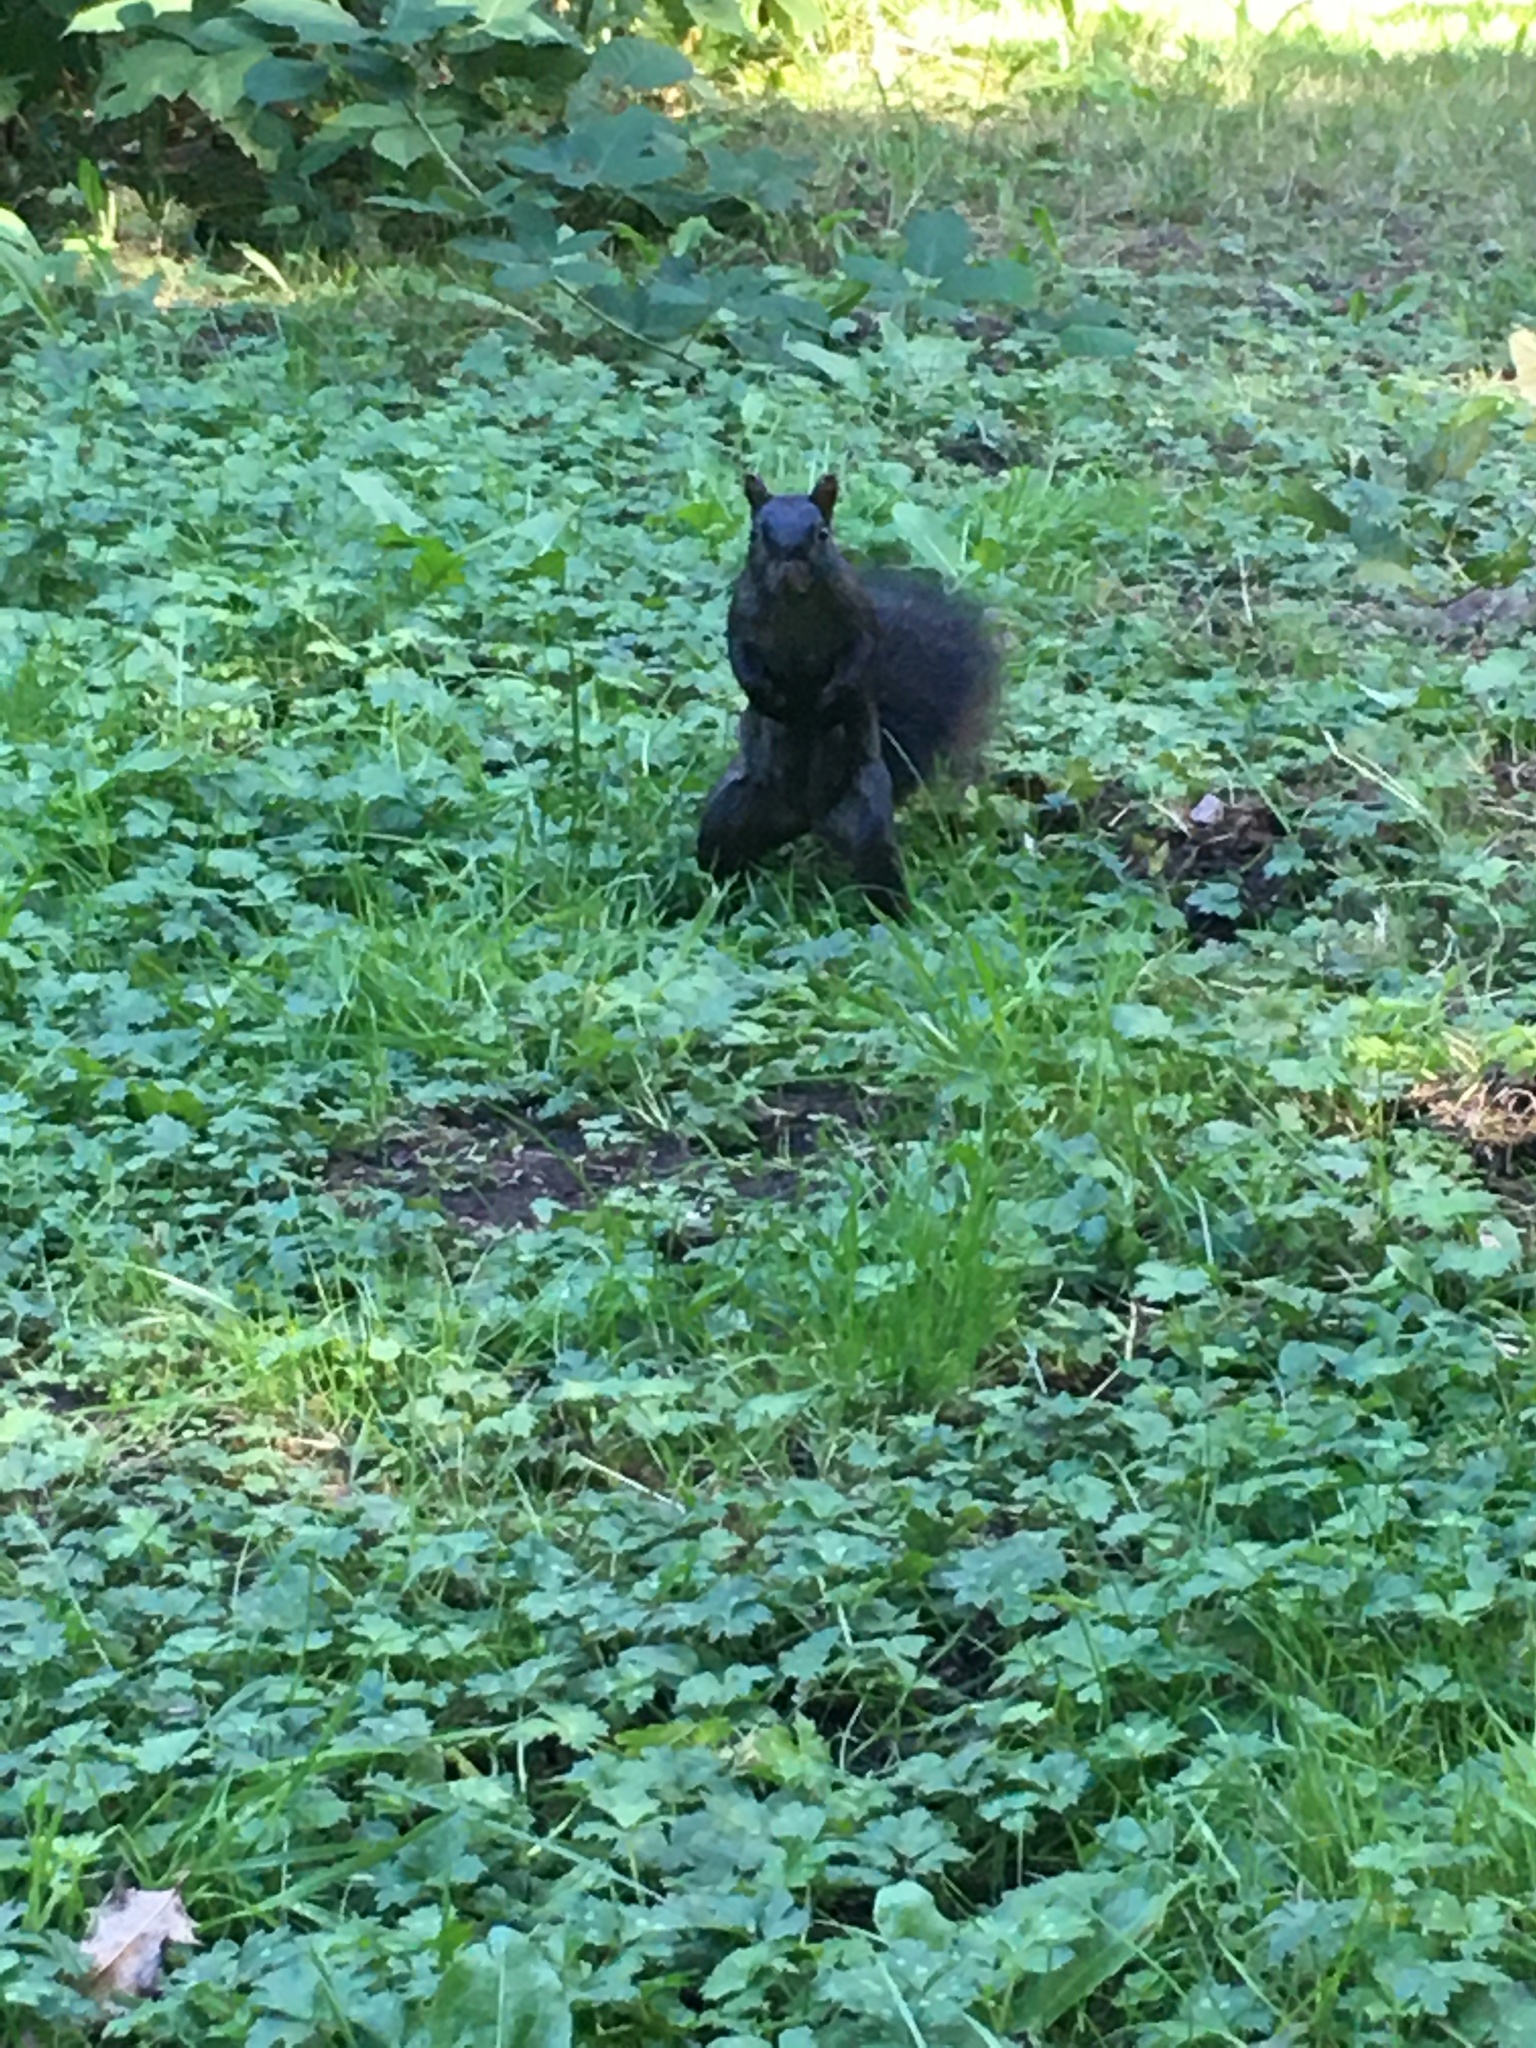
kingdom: Animalia
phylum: Chordata
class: Mammalia
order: Rodentia
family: Sciuridae
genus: Sciurus
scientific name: Sciurus carolinensis
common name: Eastern gray squirrel
